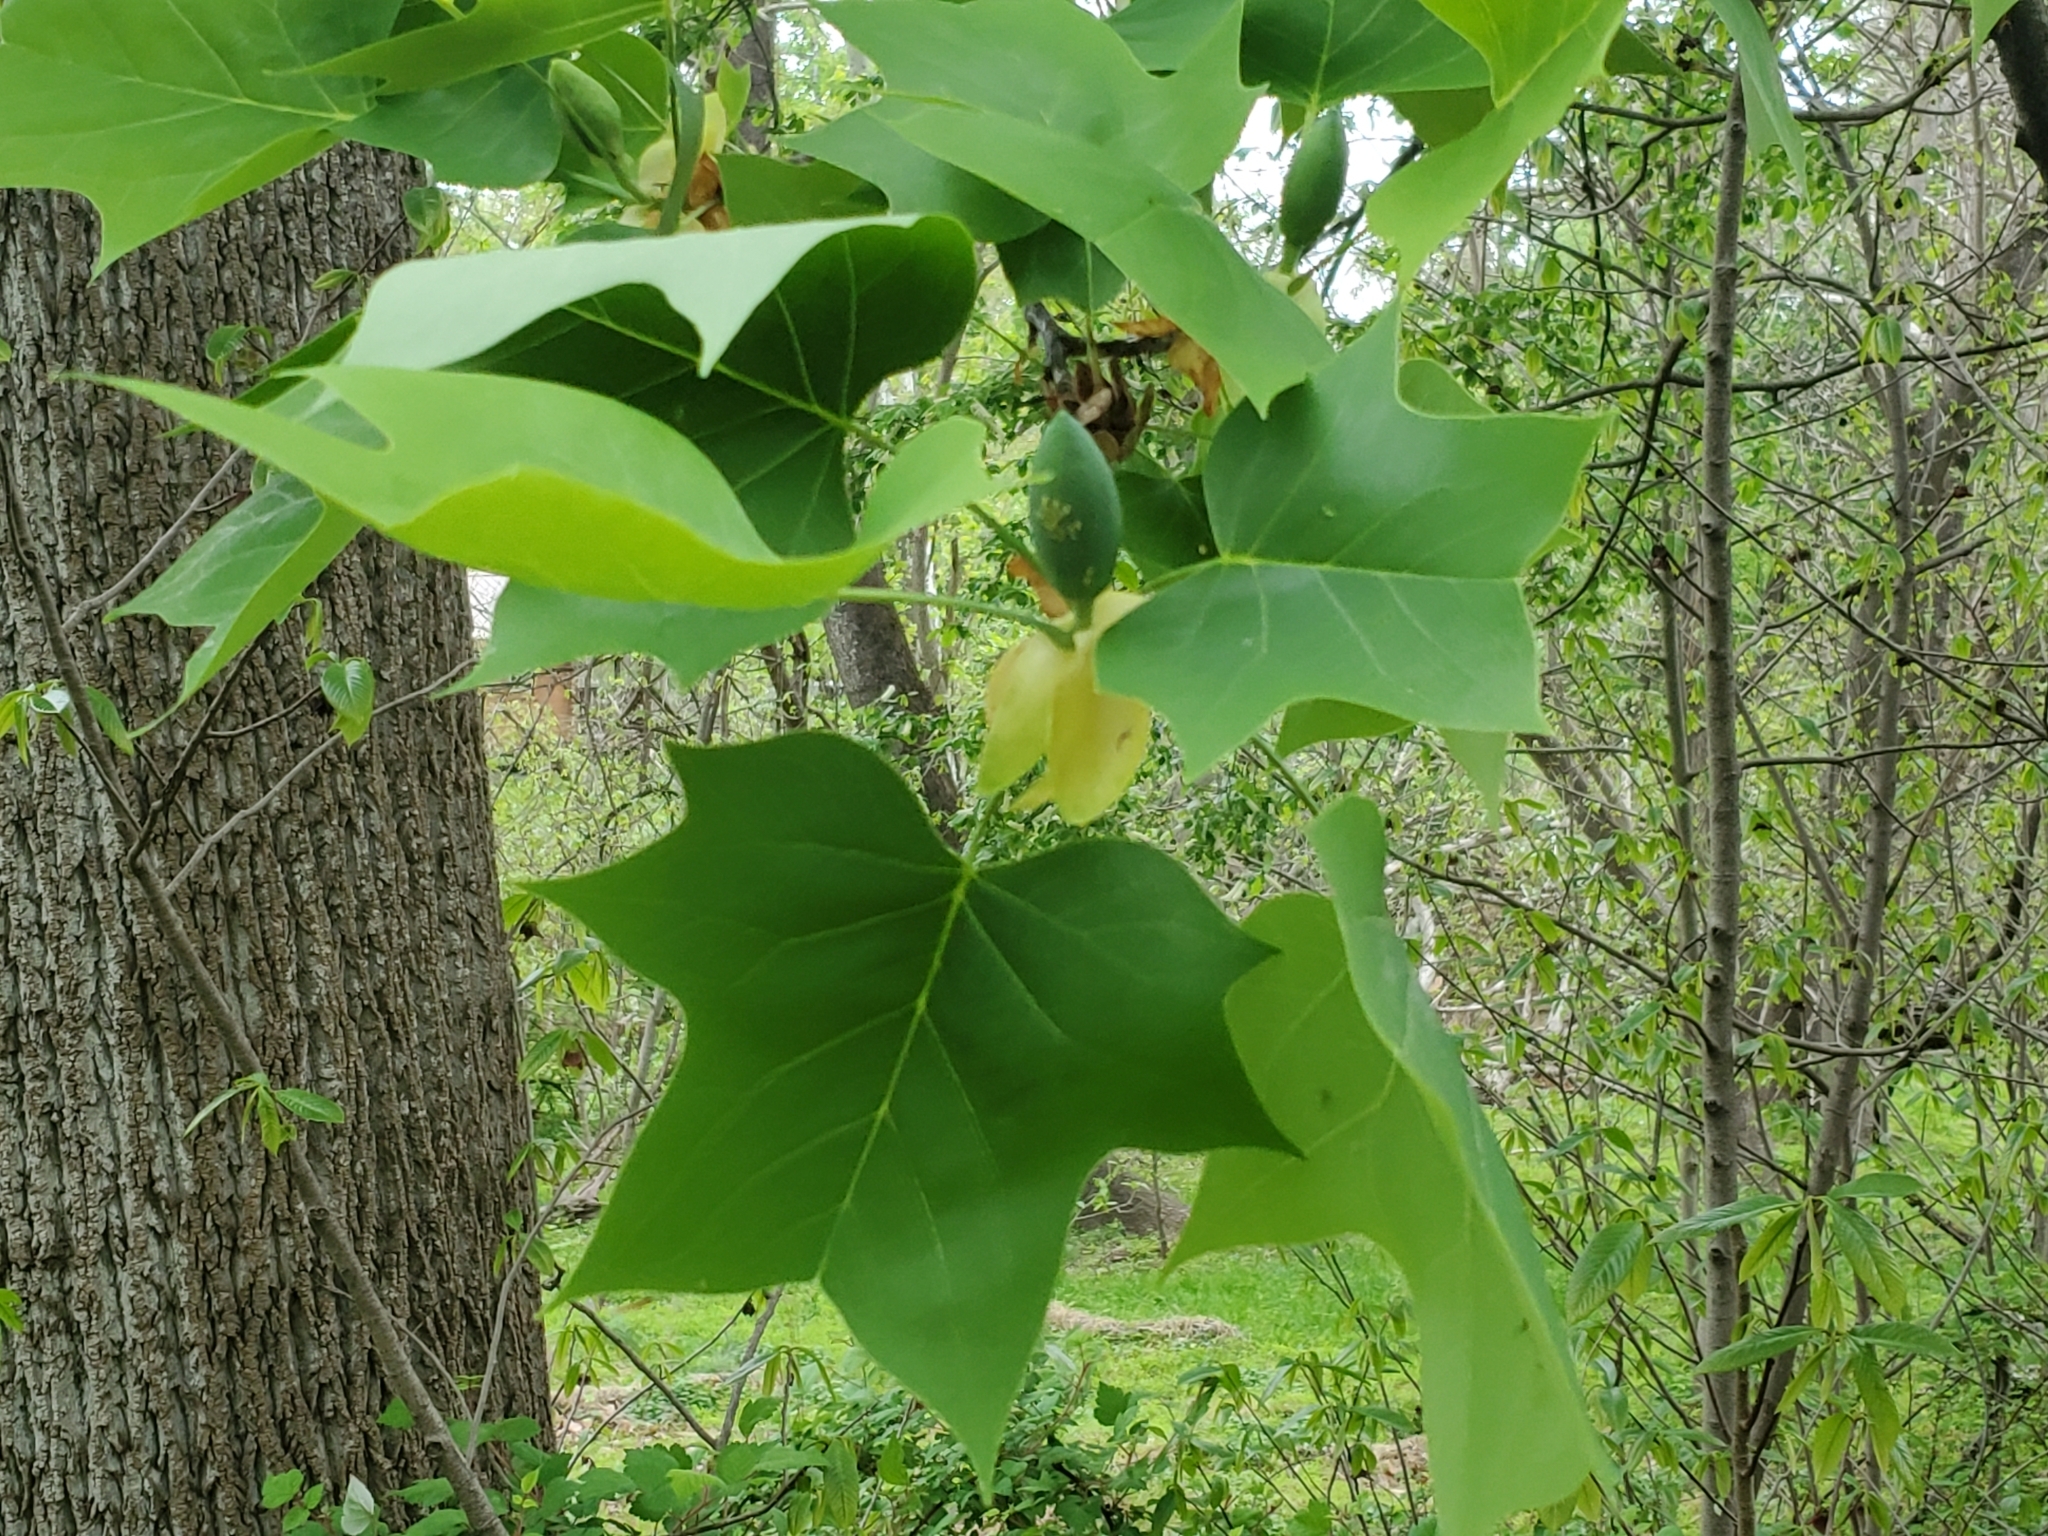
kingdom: Plantae
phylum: Tracheophyta
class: Magnoliopsida
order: Magnoliales
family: Magnoliaceae
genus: Liriodendron
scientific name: Liriodendron tulipifera
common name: Tulip tree
